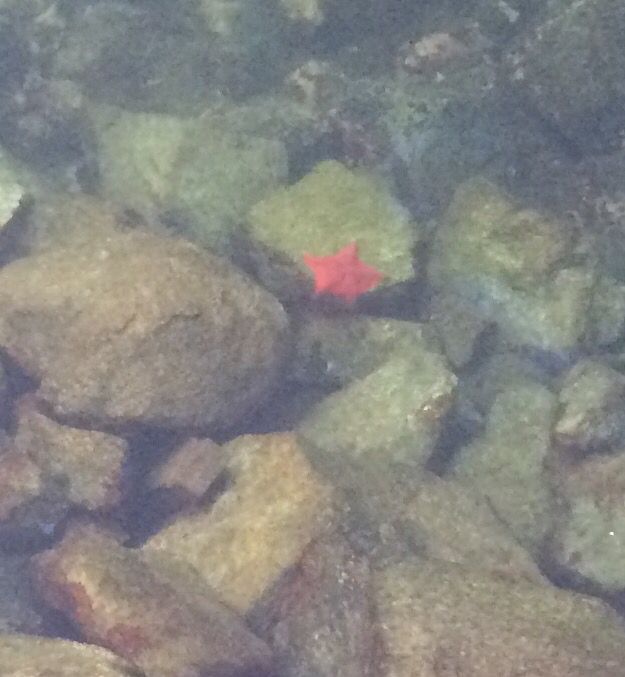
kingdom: Animalia
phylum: Echinodermata
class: Asteroidea
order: Valvatida
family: Asterinidae
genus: Patiria
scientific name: Patiria miniata
